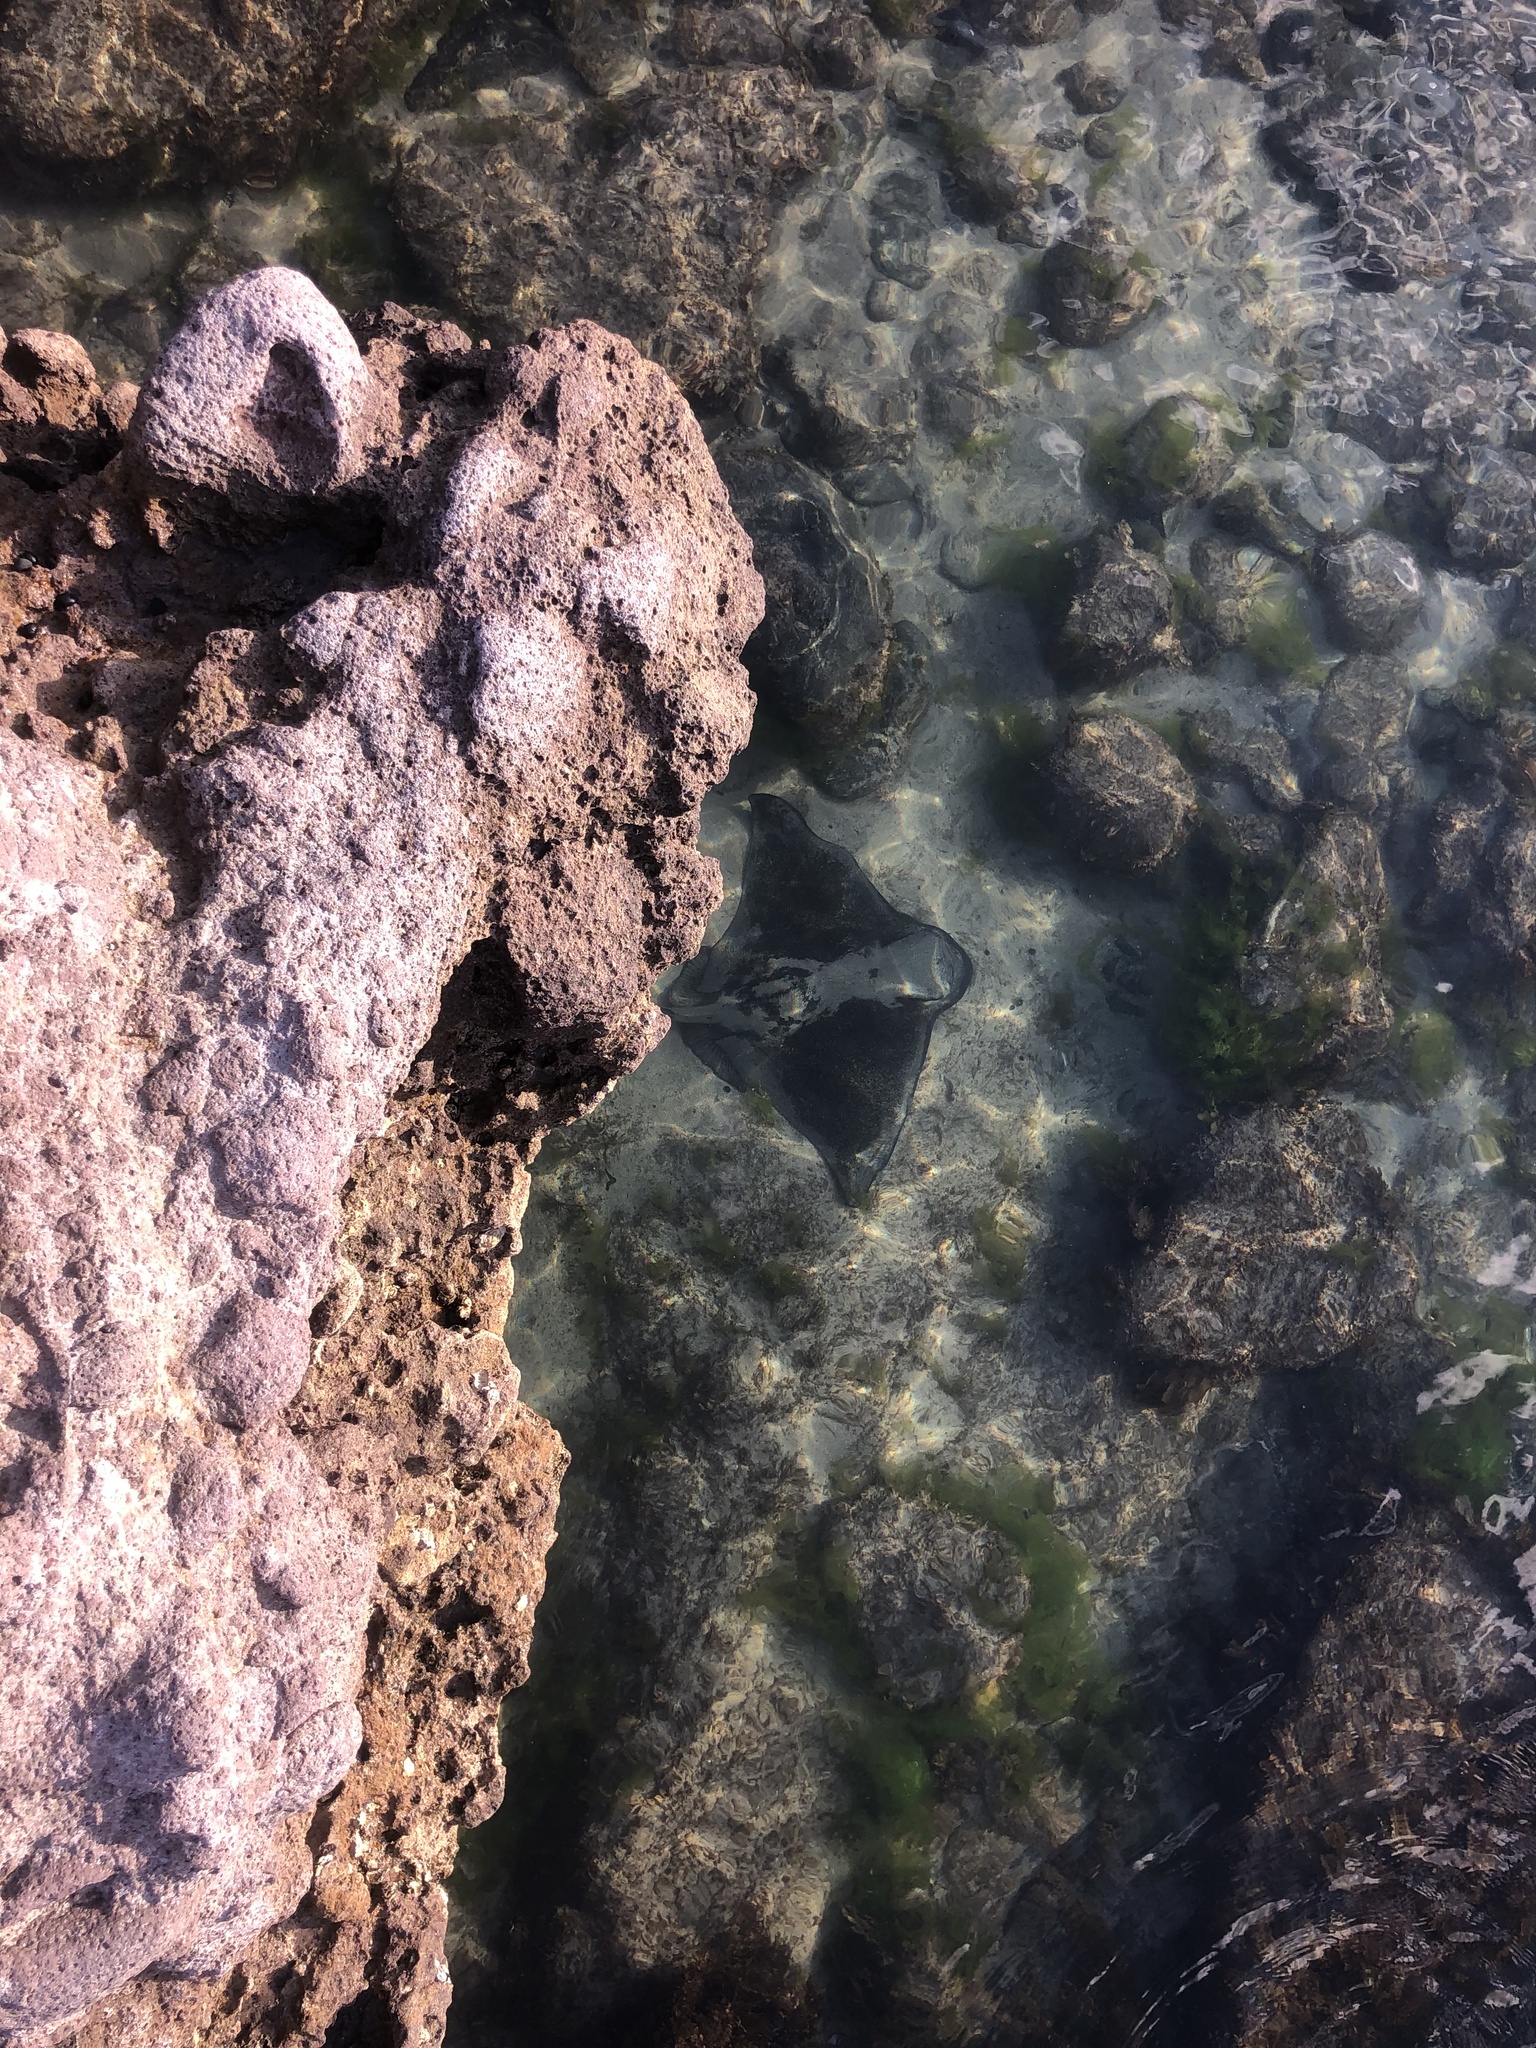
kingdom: Animalia
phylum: Chordata
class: Elasmobranchii
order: Myliobatiformes
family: Myliobatidae
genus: Myliobatis
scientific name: Myliobatis tenuicaudatus
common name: Eagle ray
